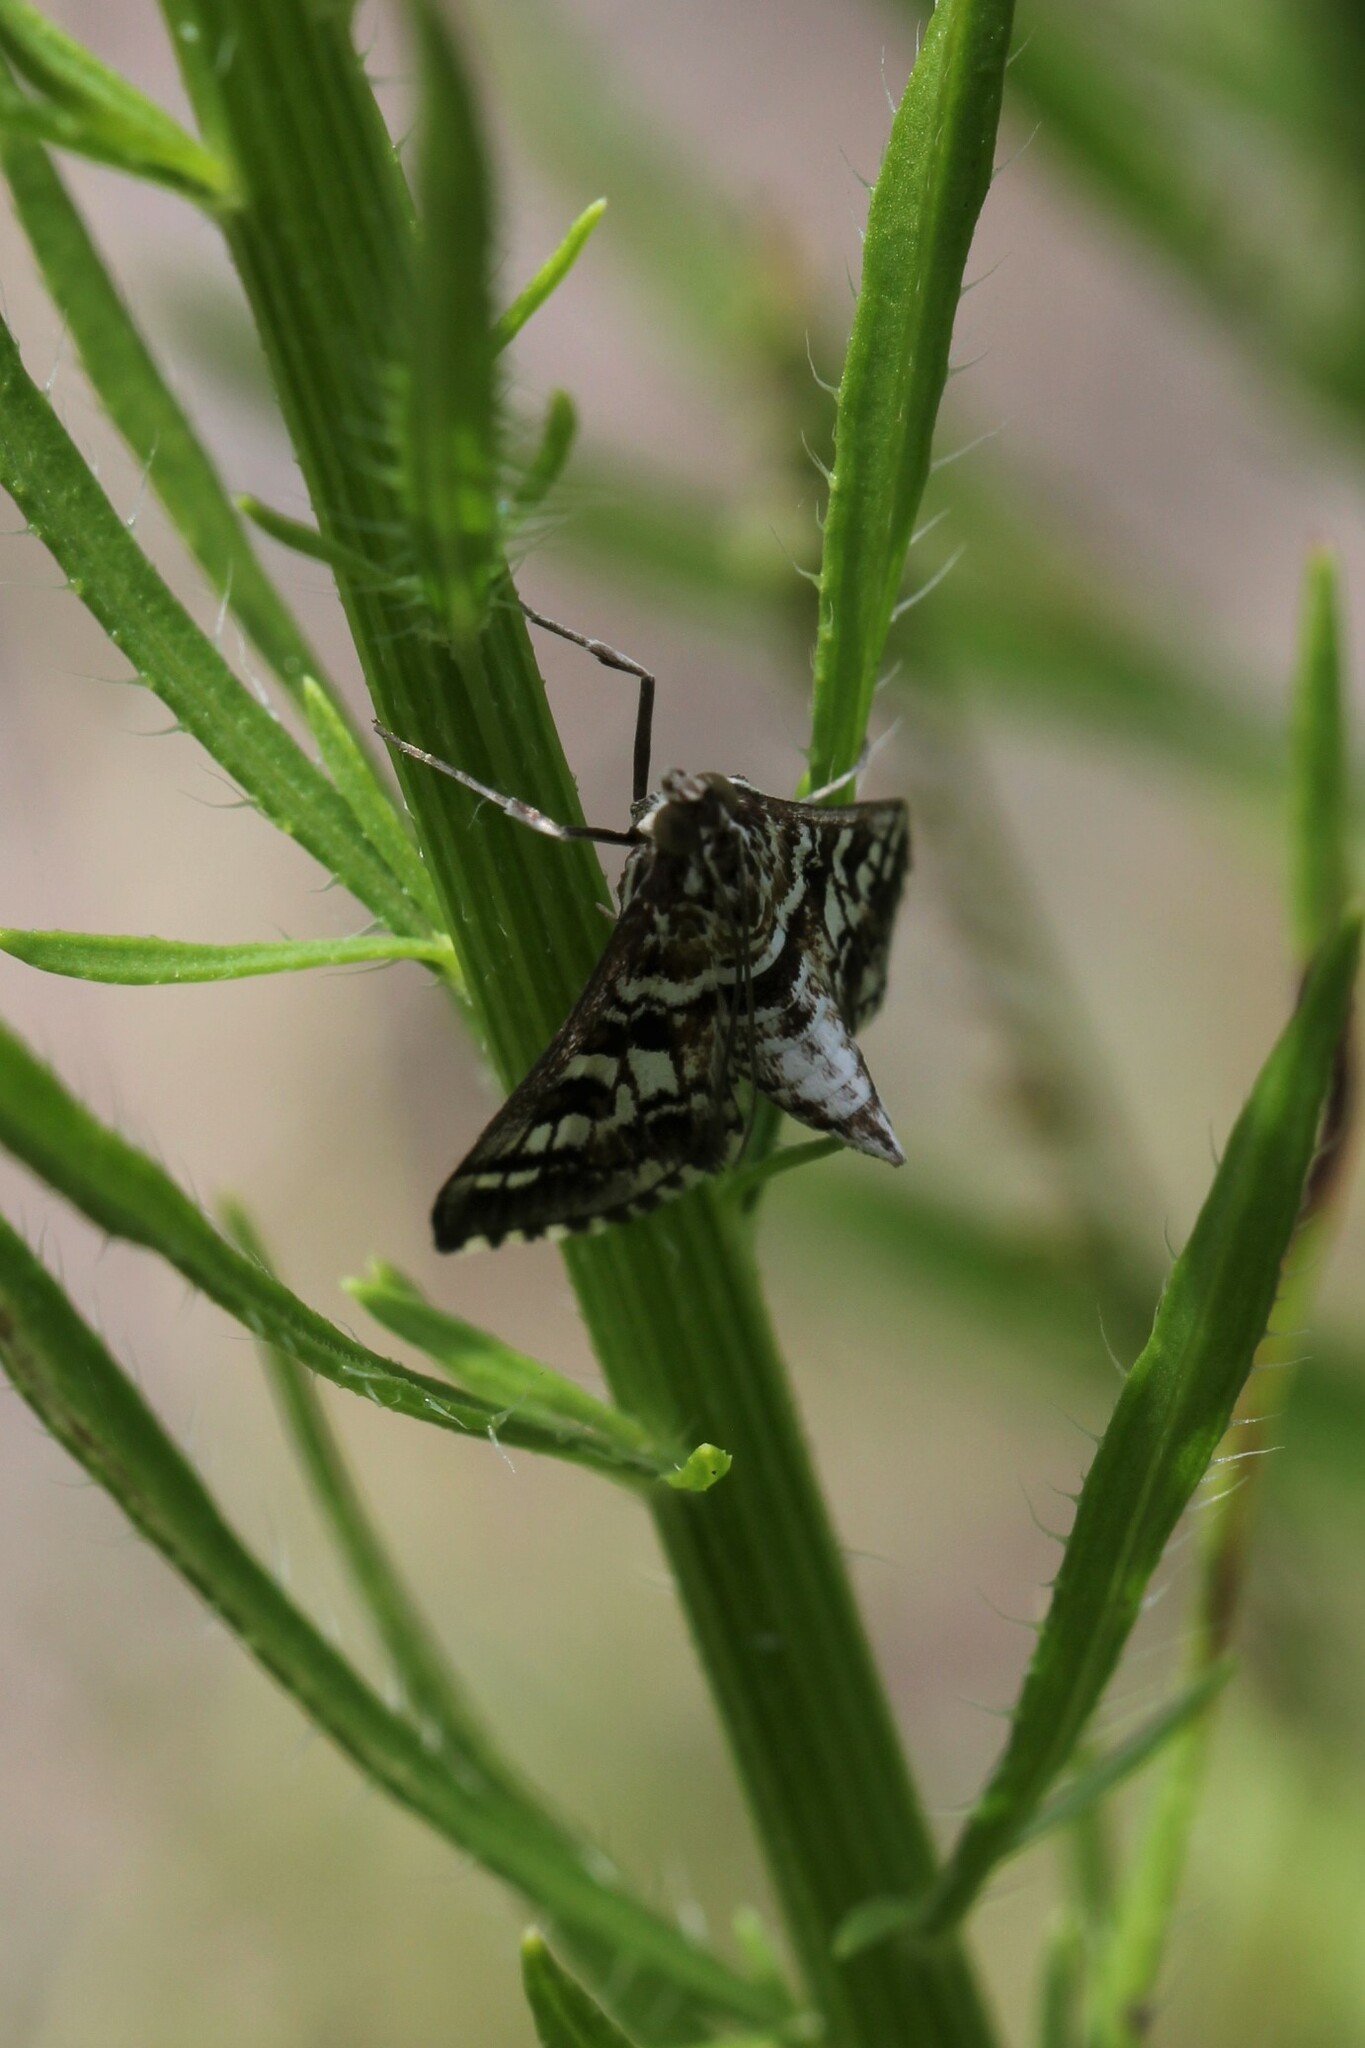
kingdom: Animalia
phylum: Arthropoda
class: Insecta
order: Lepidoptera
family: Crambidae
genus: Epipagis
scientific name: Epipagis forsythae
